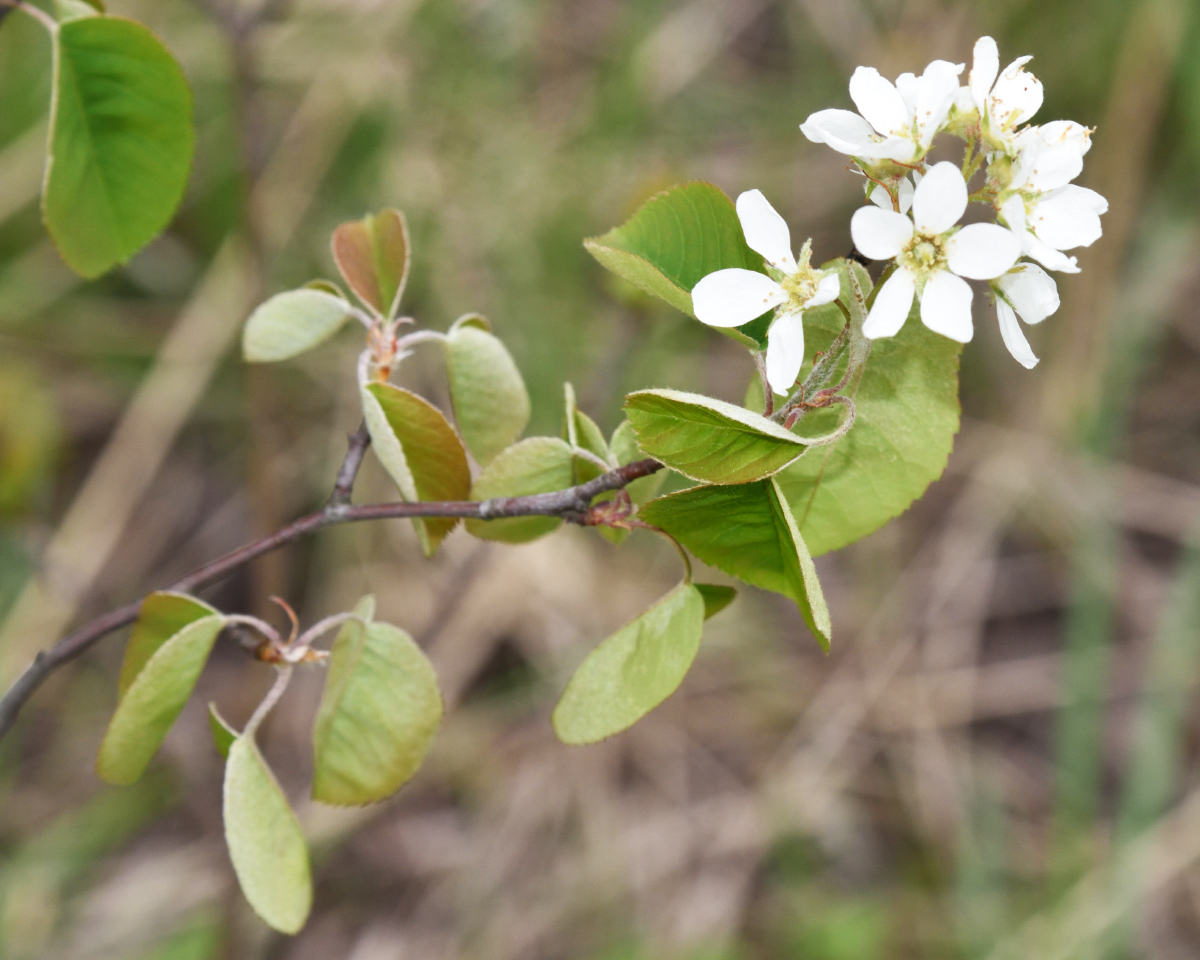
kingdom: Plantae
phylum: Tracheophyta
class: Magnoliopsida
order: Rosales
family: Rosaceae
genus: Amelanchier
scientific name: Amelanchier
